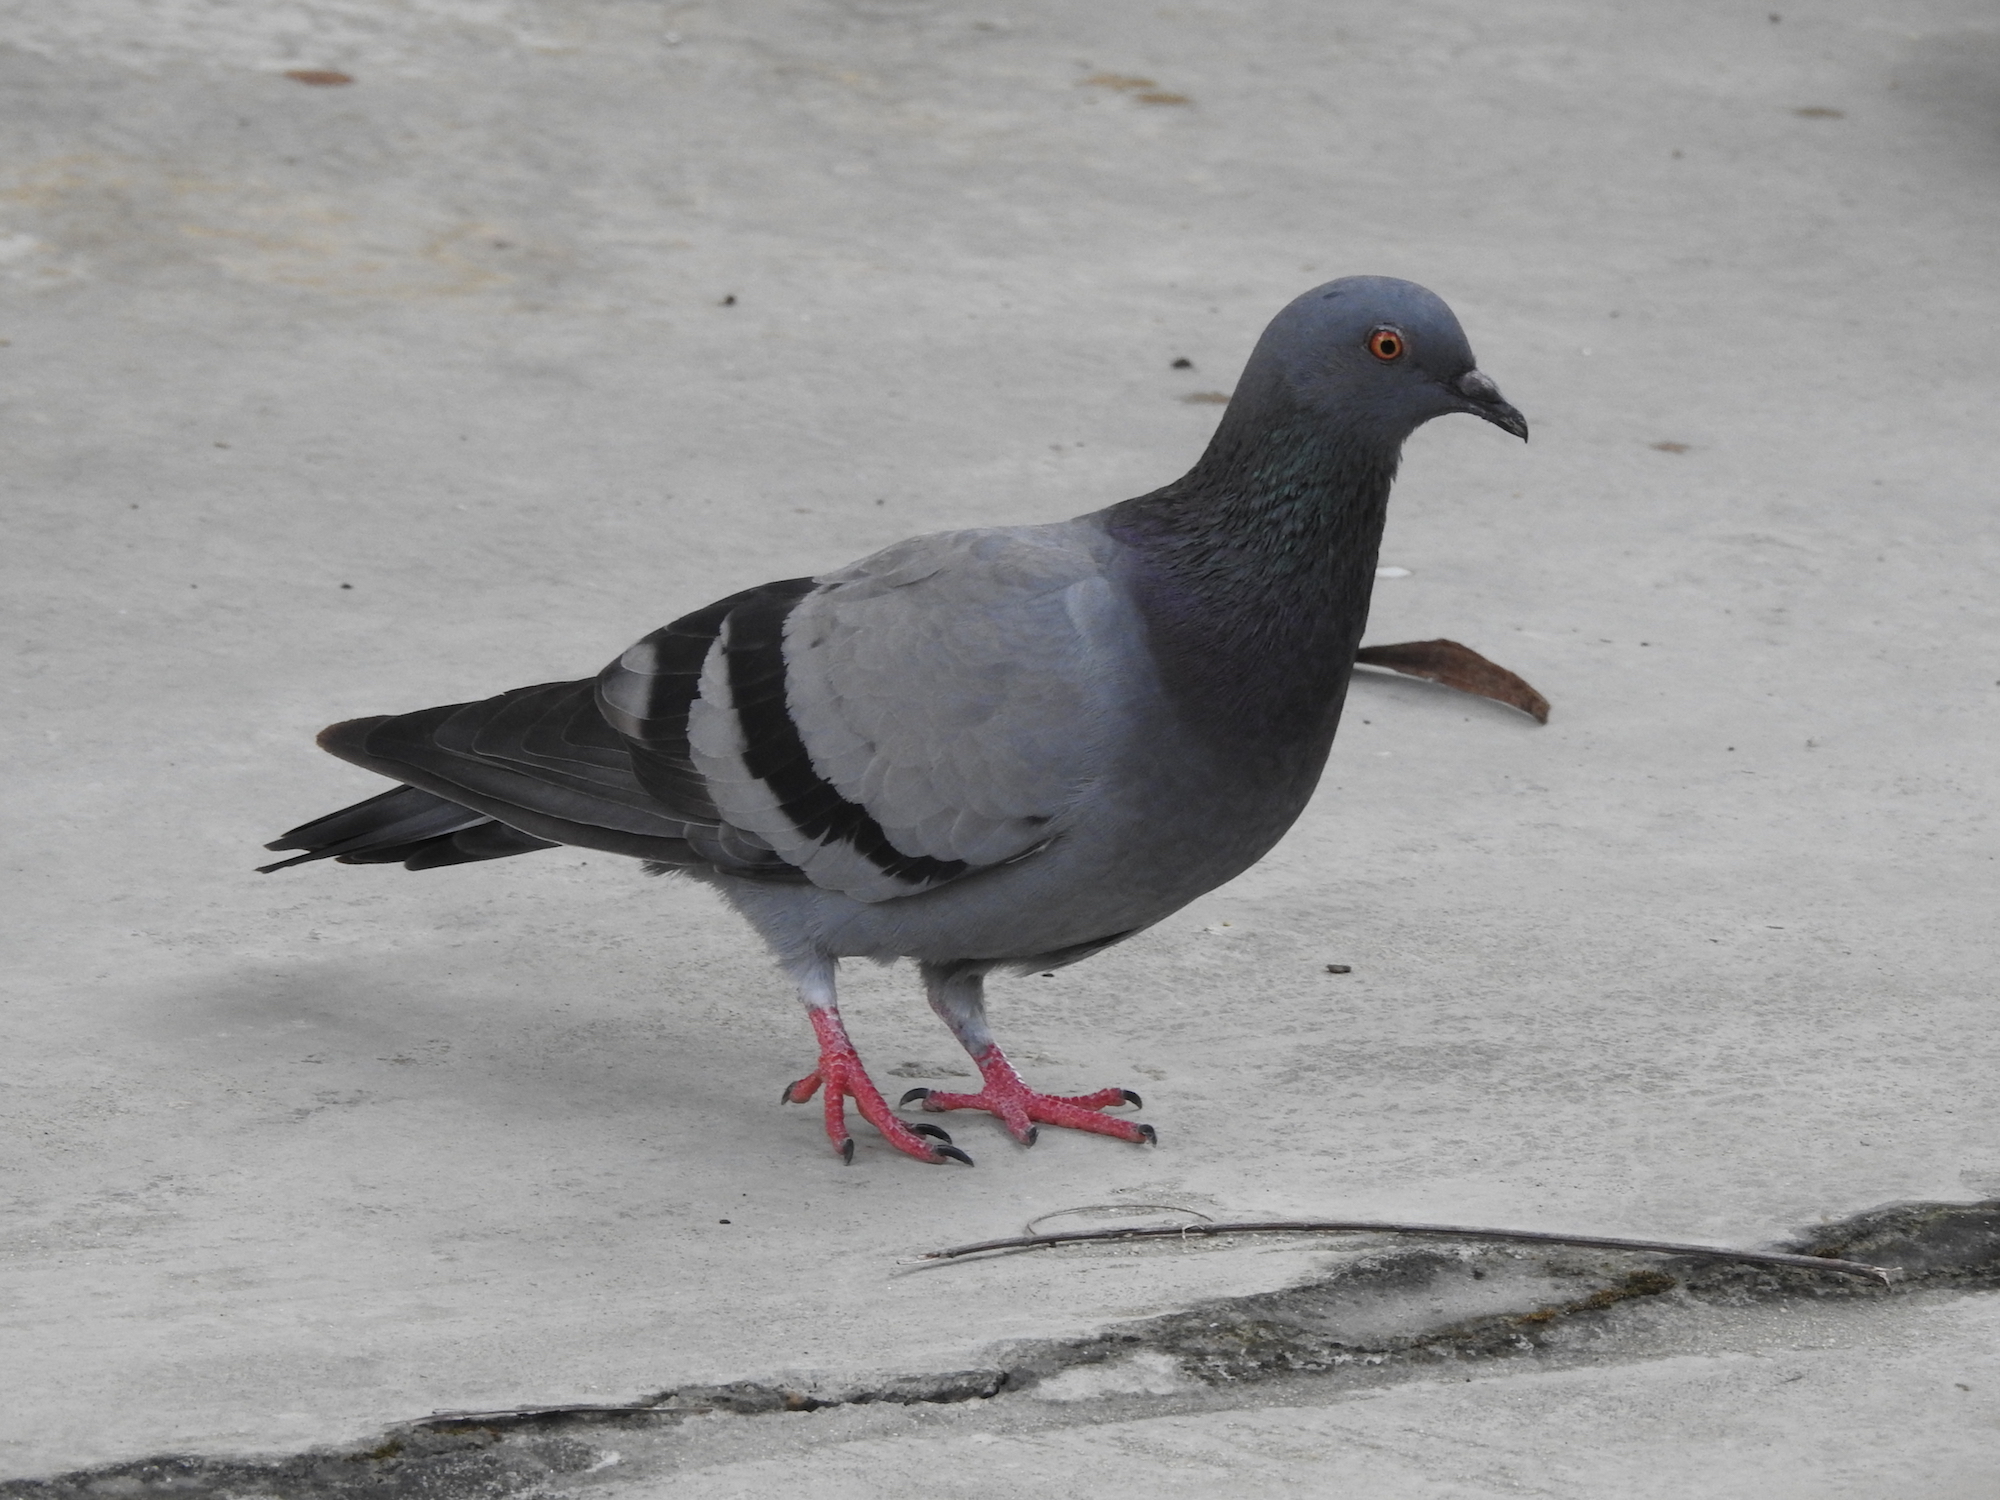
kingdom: Animalia
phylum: Chordata
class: Aves
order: Columbiformes
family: Columbidae
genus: Columba
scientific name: Columba livia
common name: Rock pigeon
